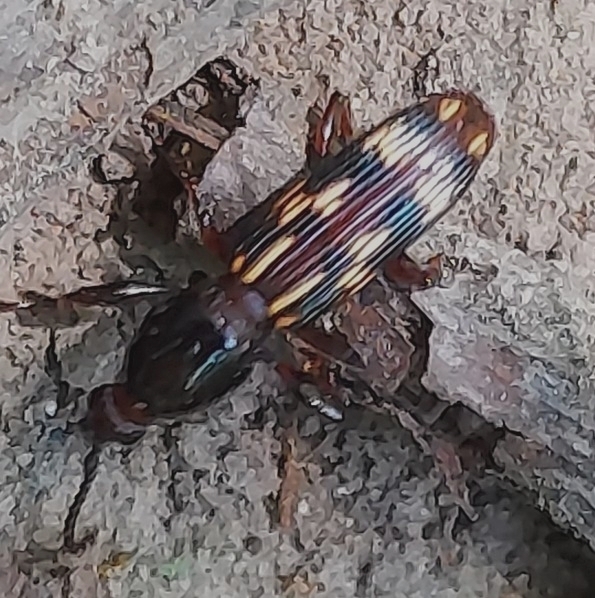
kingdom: Animalia
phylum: Arthropoda
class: Insecta
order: Coleoptera
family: Brentidae
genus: Arrenodes
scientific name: Arrenodes minutus
